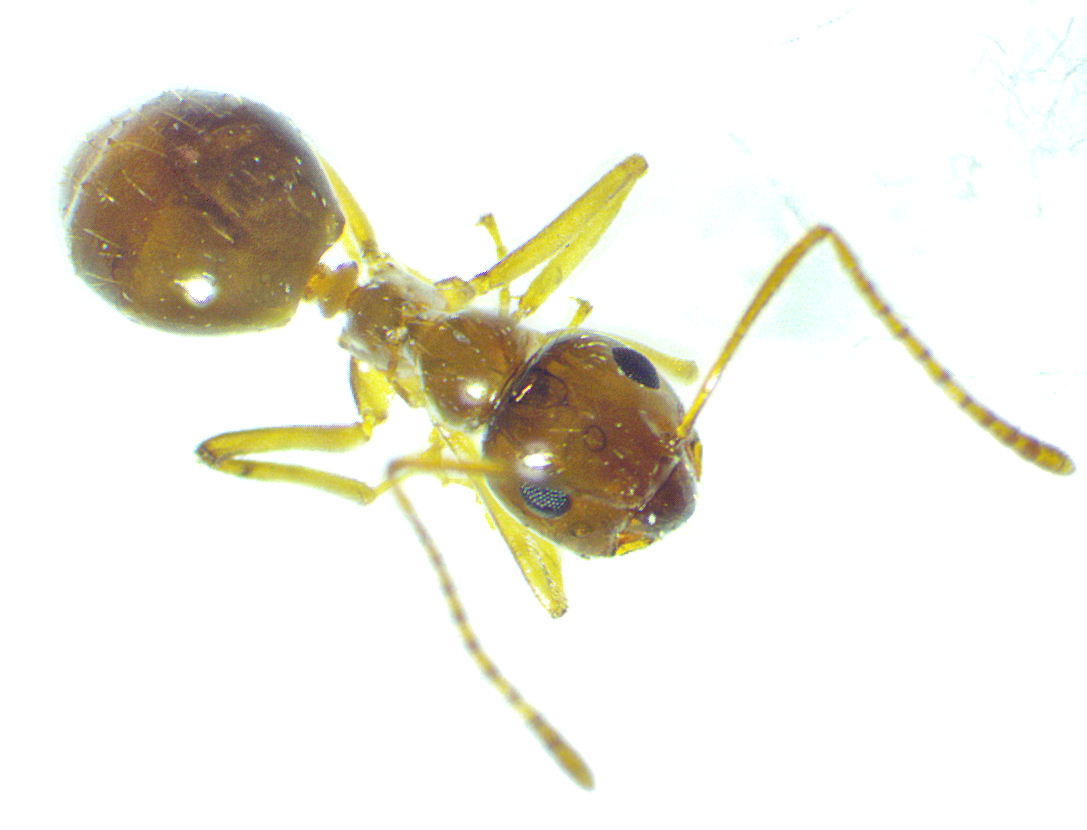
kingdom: Animalia
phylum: Arthropoda
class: Insecta
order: Hymenoptera
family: Formicidae
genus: Prenolepis
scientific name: Prenolepis imparis
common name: Small honey ant
